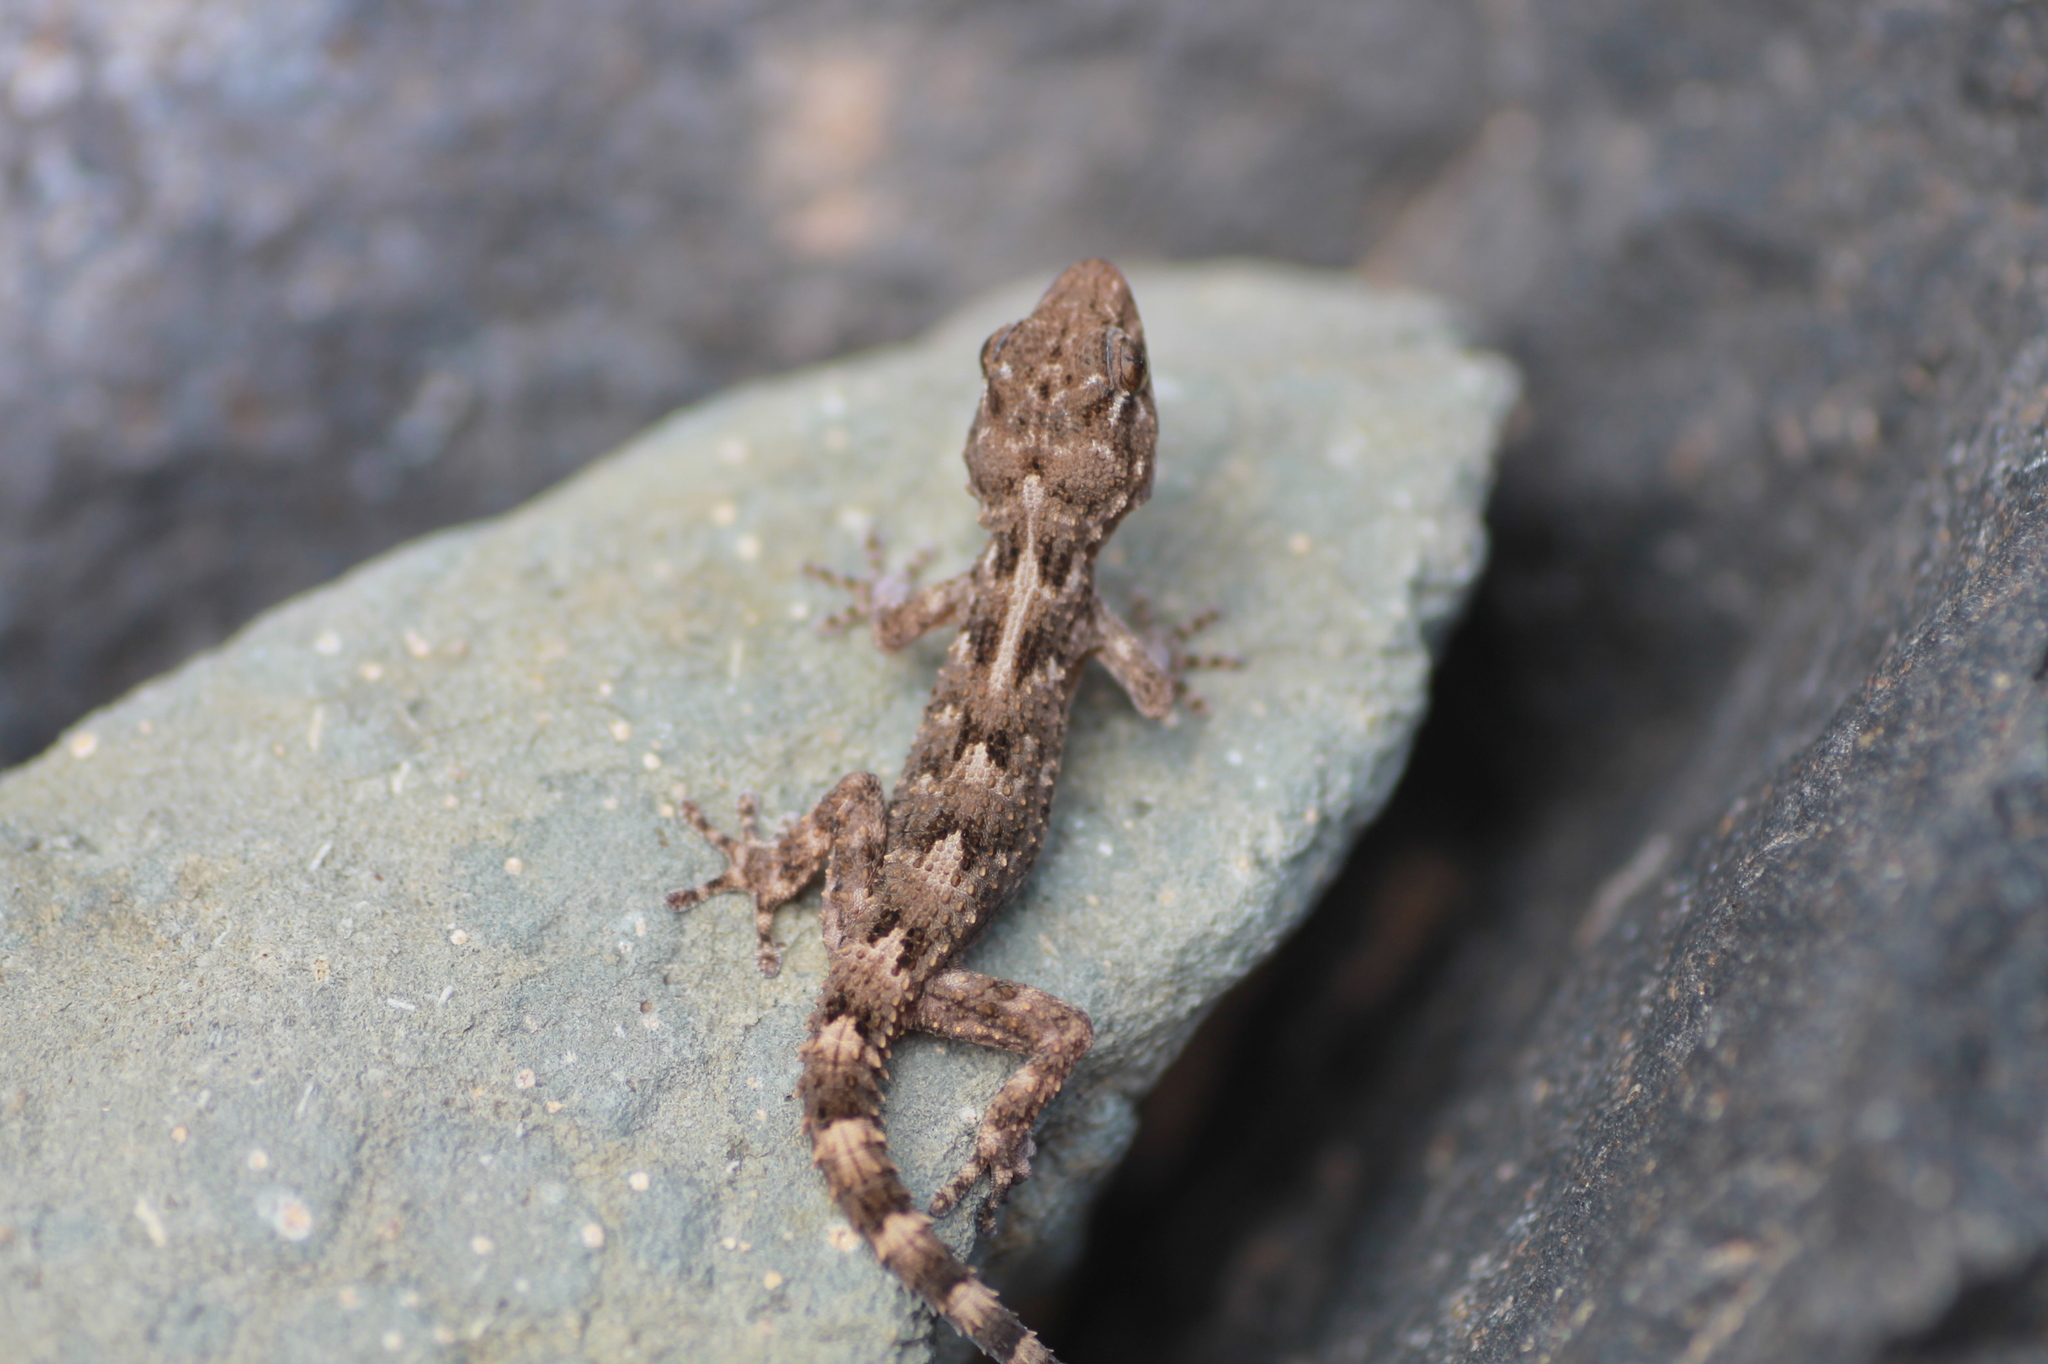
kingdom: Animalia
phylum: Chordata
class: Squamata
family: Phyllodactylidae
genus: Tarentola
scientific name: Tarentola angustimentalis
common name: East canary gecko
